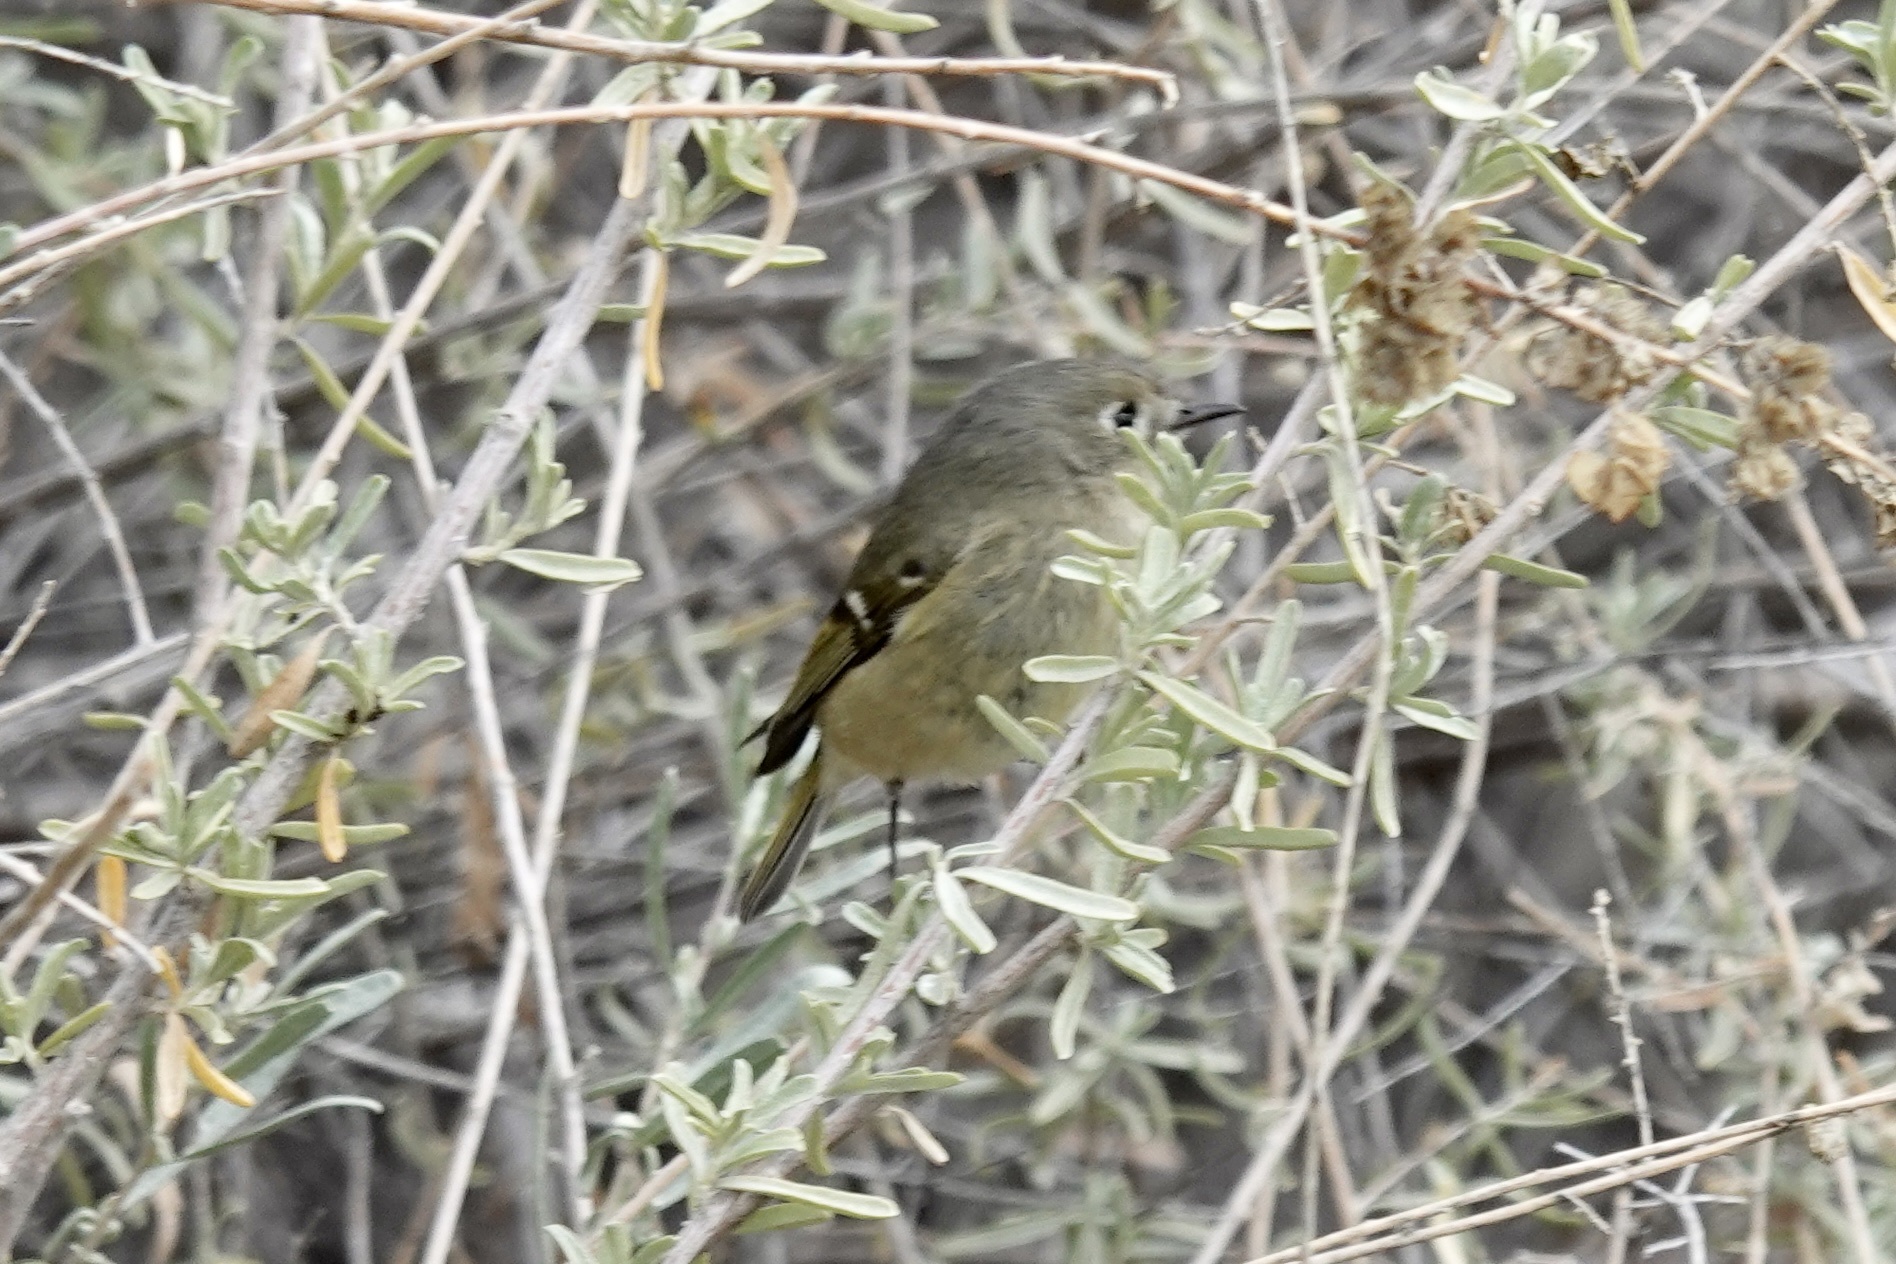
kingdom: Animalia
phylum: Chordata
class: Aves
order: Passeriformes
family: Regulidae
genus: Regulus
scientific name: Regulus calendula
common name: Ruby-crowned kinglet
